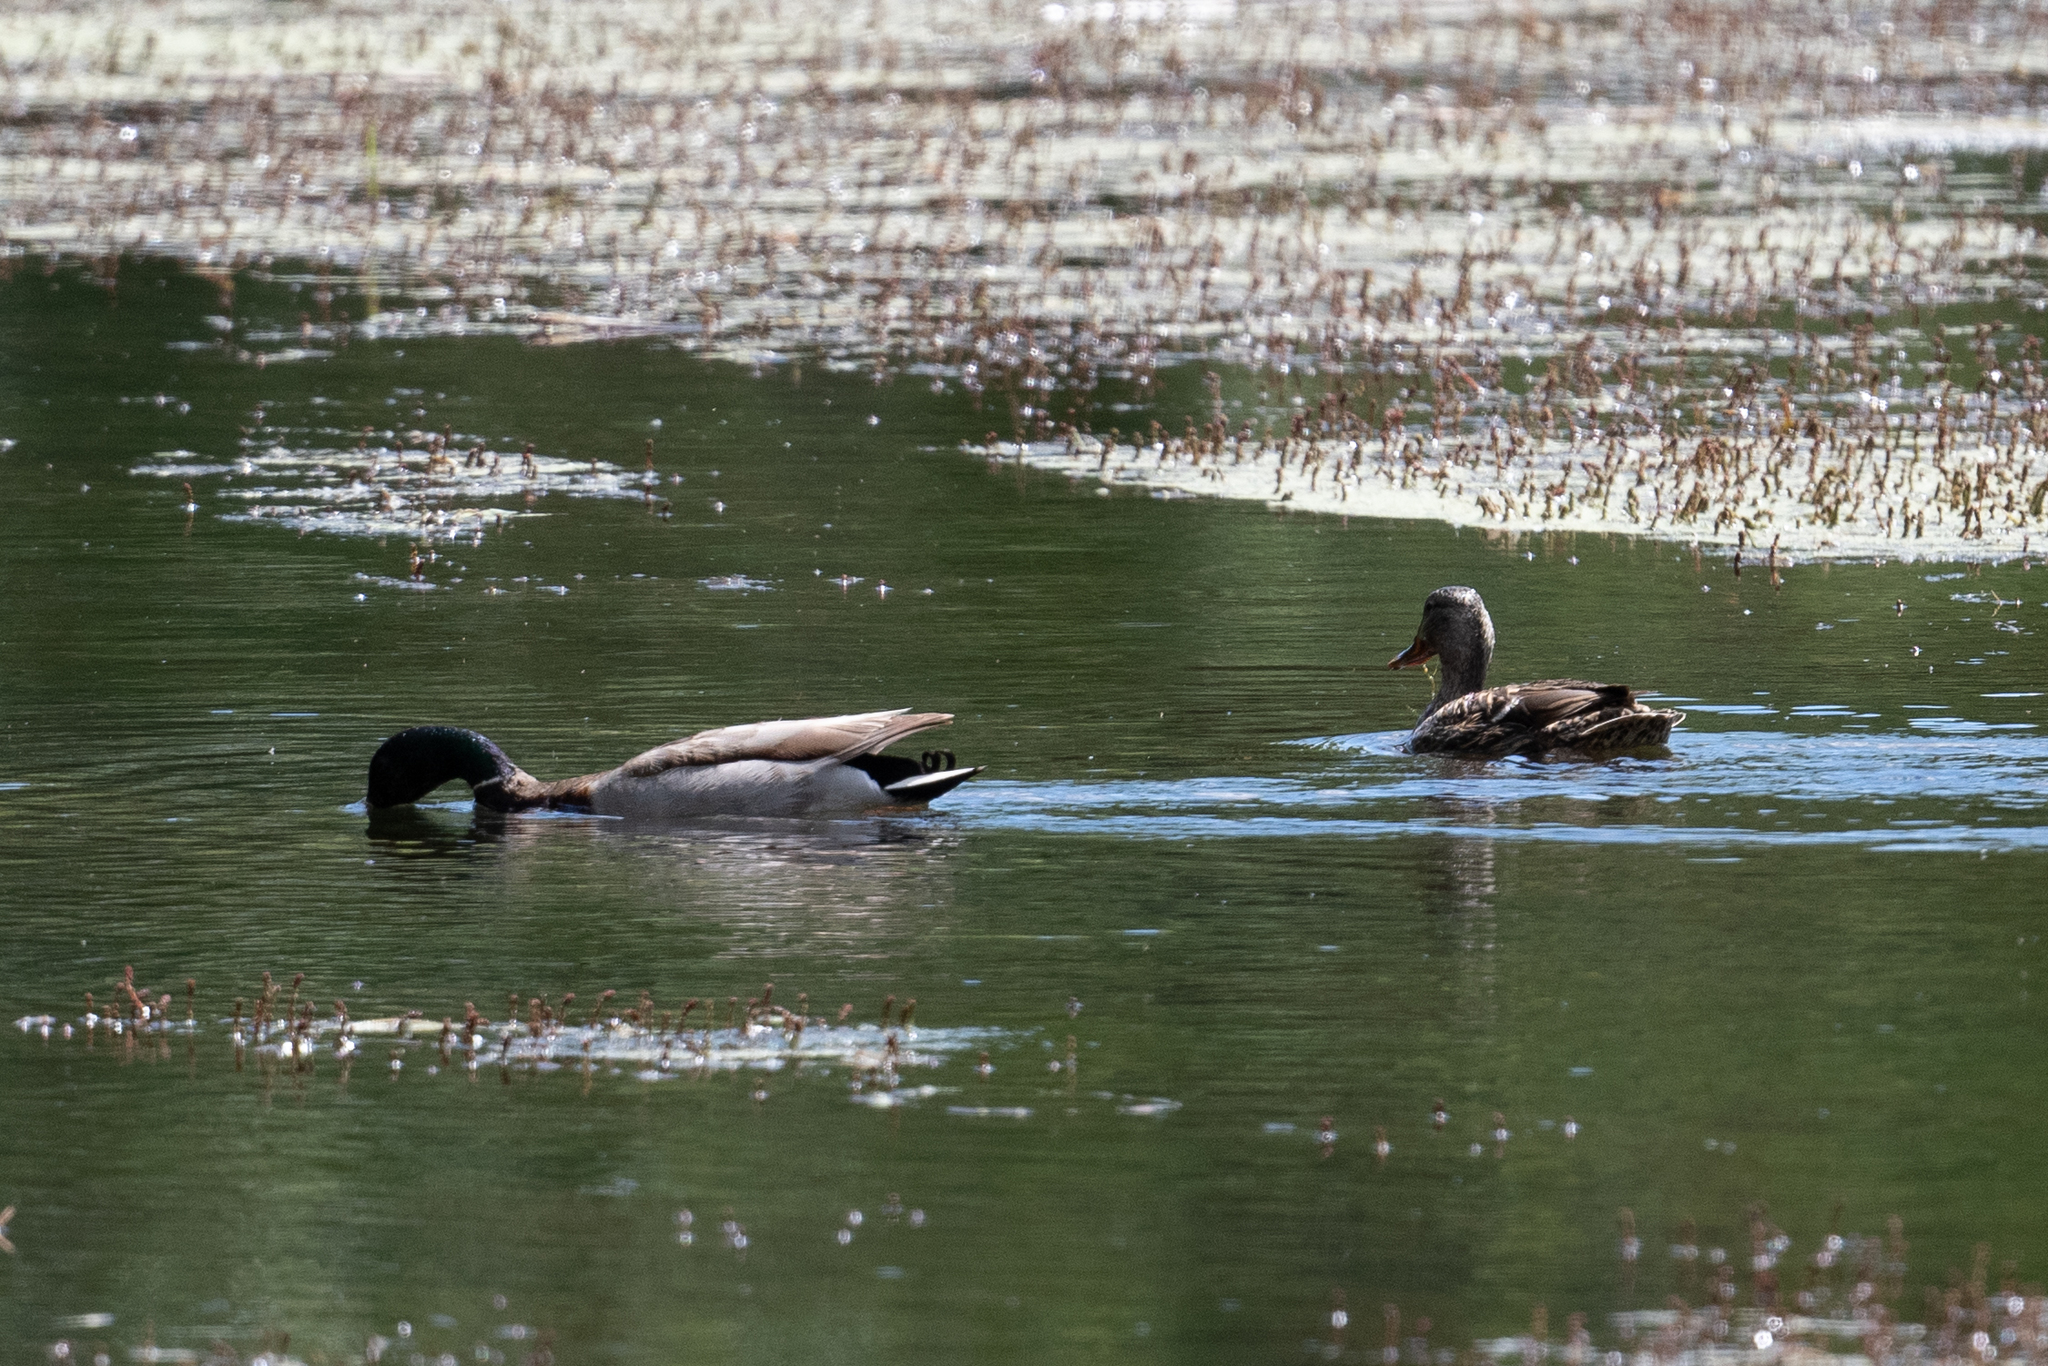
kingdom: Animalia
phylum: Chordata
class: Aves
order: Anseriformes
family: Anatidae
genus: Anas
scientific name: Anas platyrhynchos
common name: Mallard
